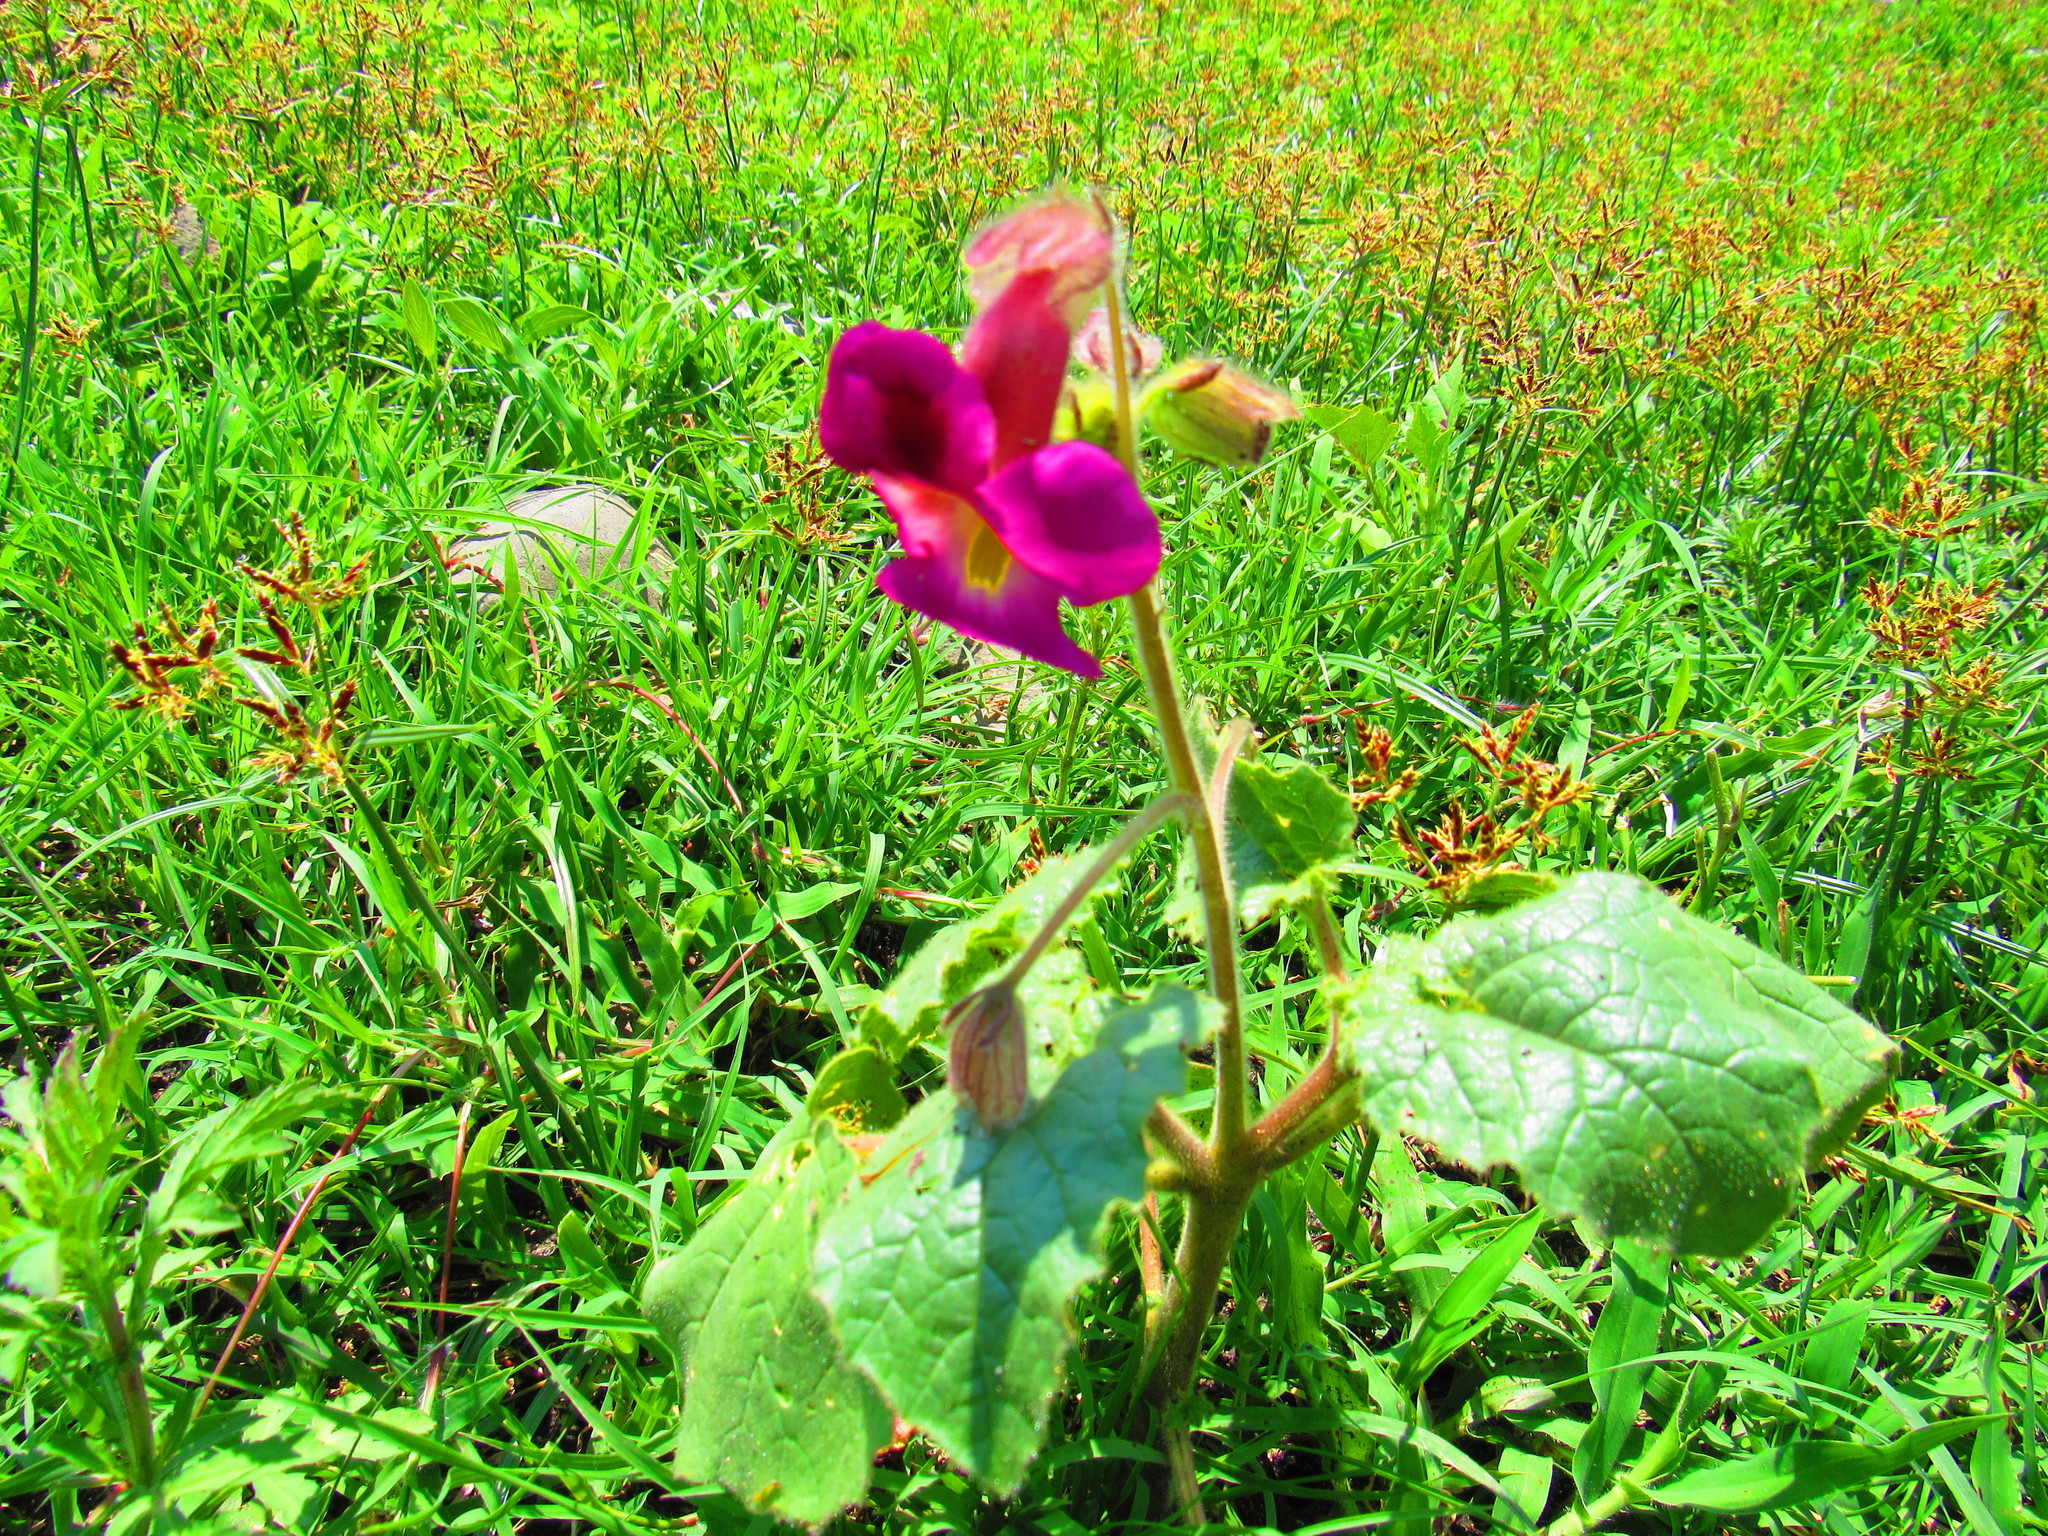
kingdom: Plantae
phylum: Tracheophyta
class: Magnoliopsida
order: Lamiales
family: Martyniaceae
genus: Proboscidea
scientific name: Proboscidea louisianica
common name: Elephant tusks
